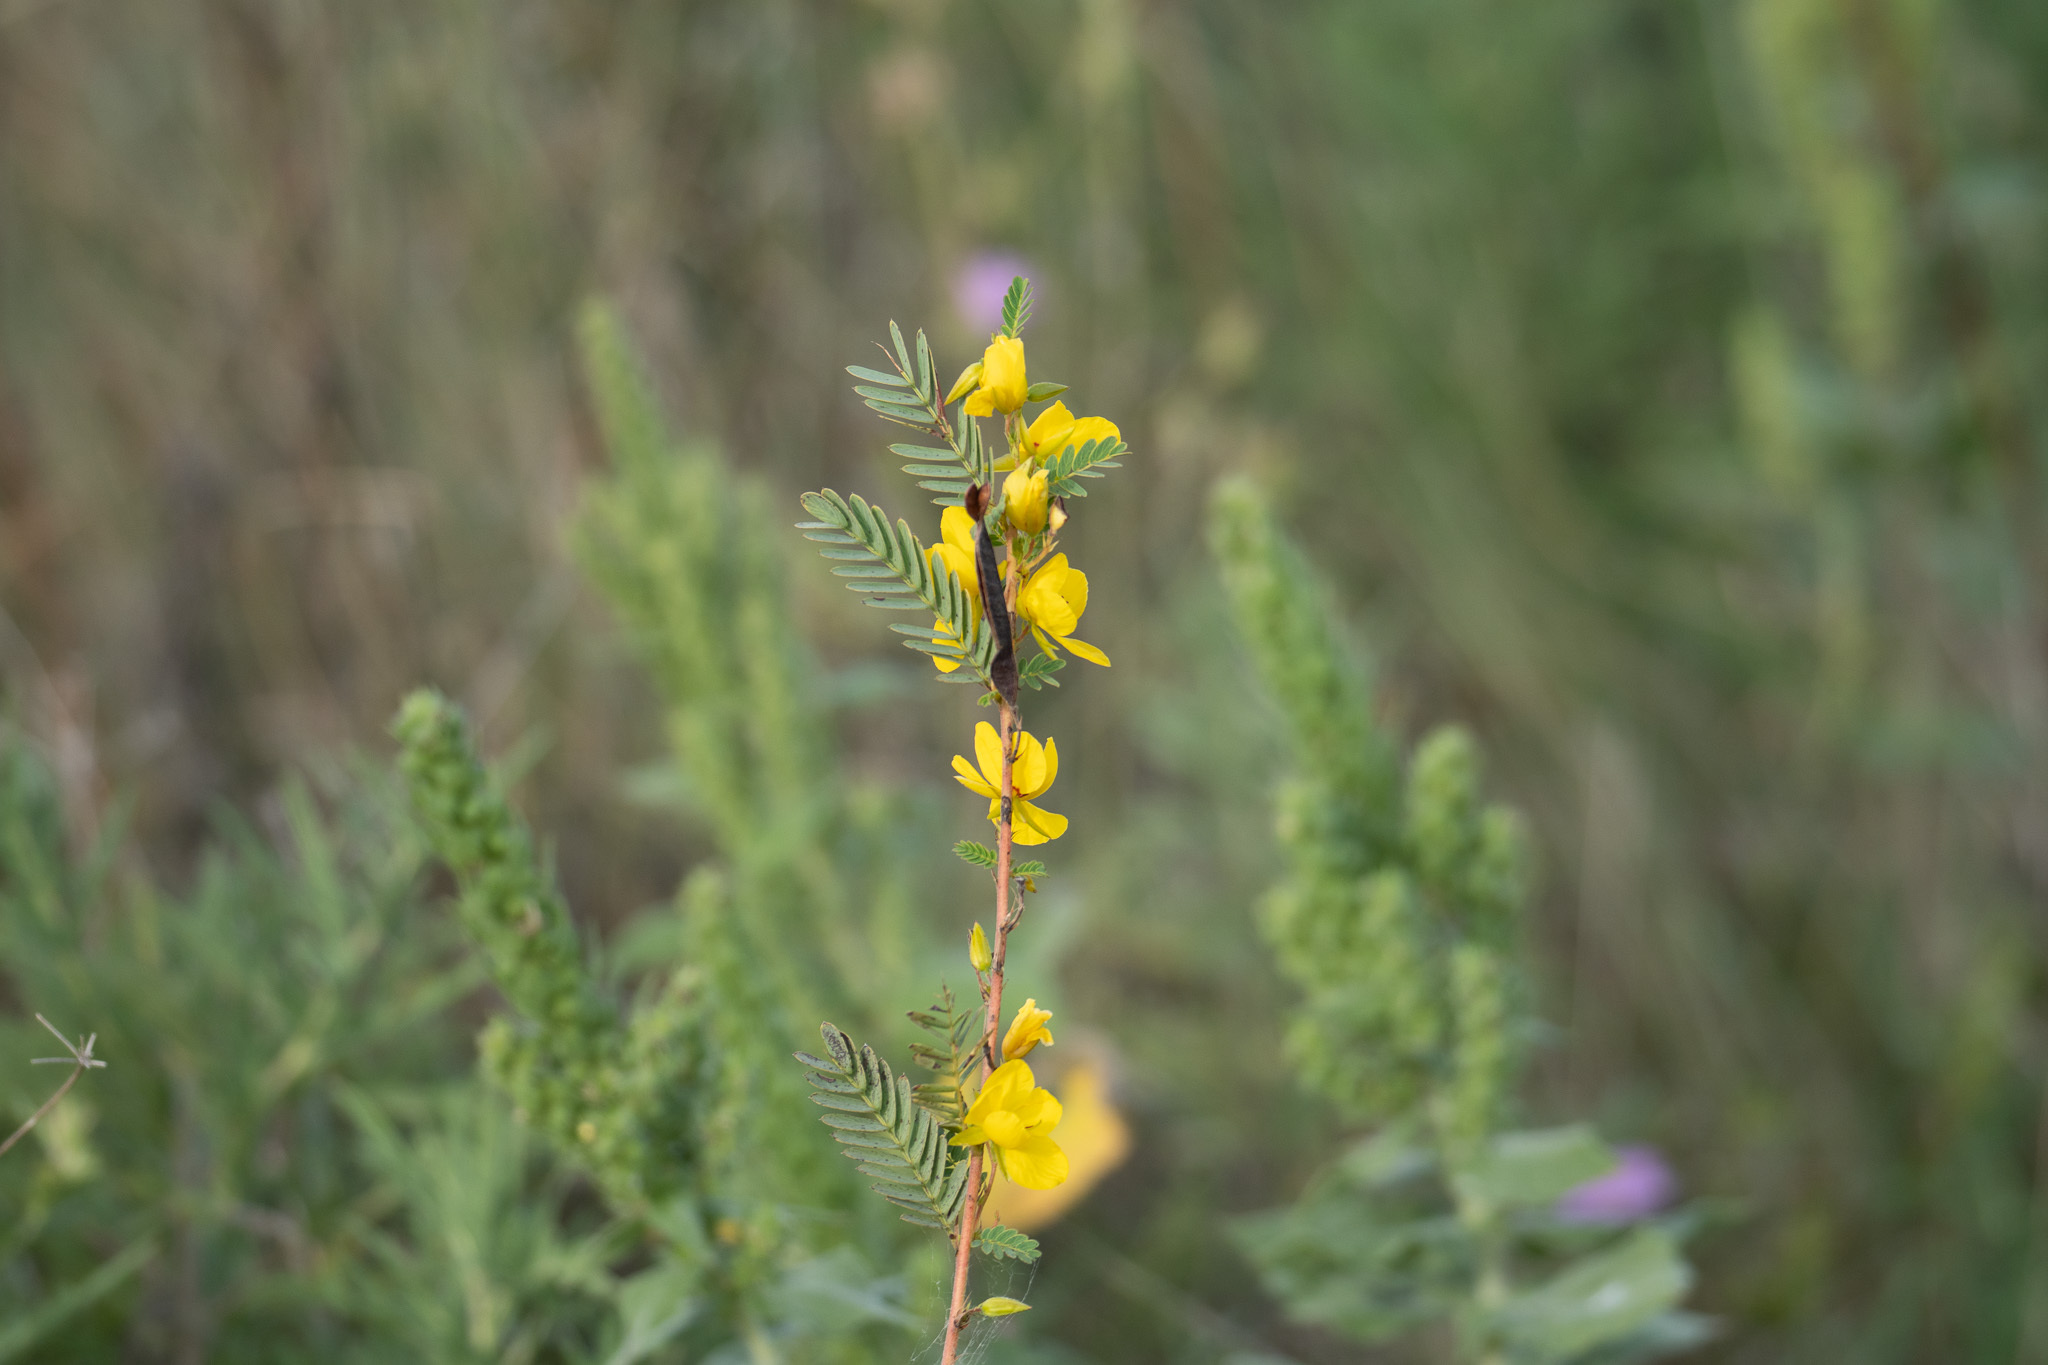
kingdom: Plantae
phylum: Tracheophyta
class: Magnoliopsida
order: Fabales
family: Fabaceae
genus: Chamaecrista
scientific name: Chamaecrista fasciculata
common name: Golden cassia
